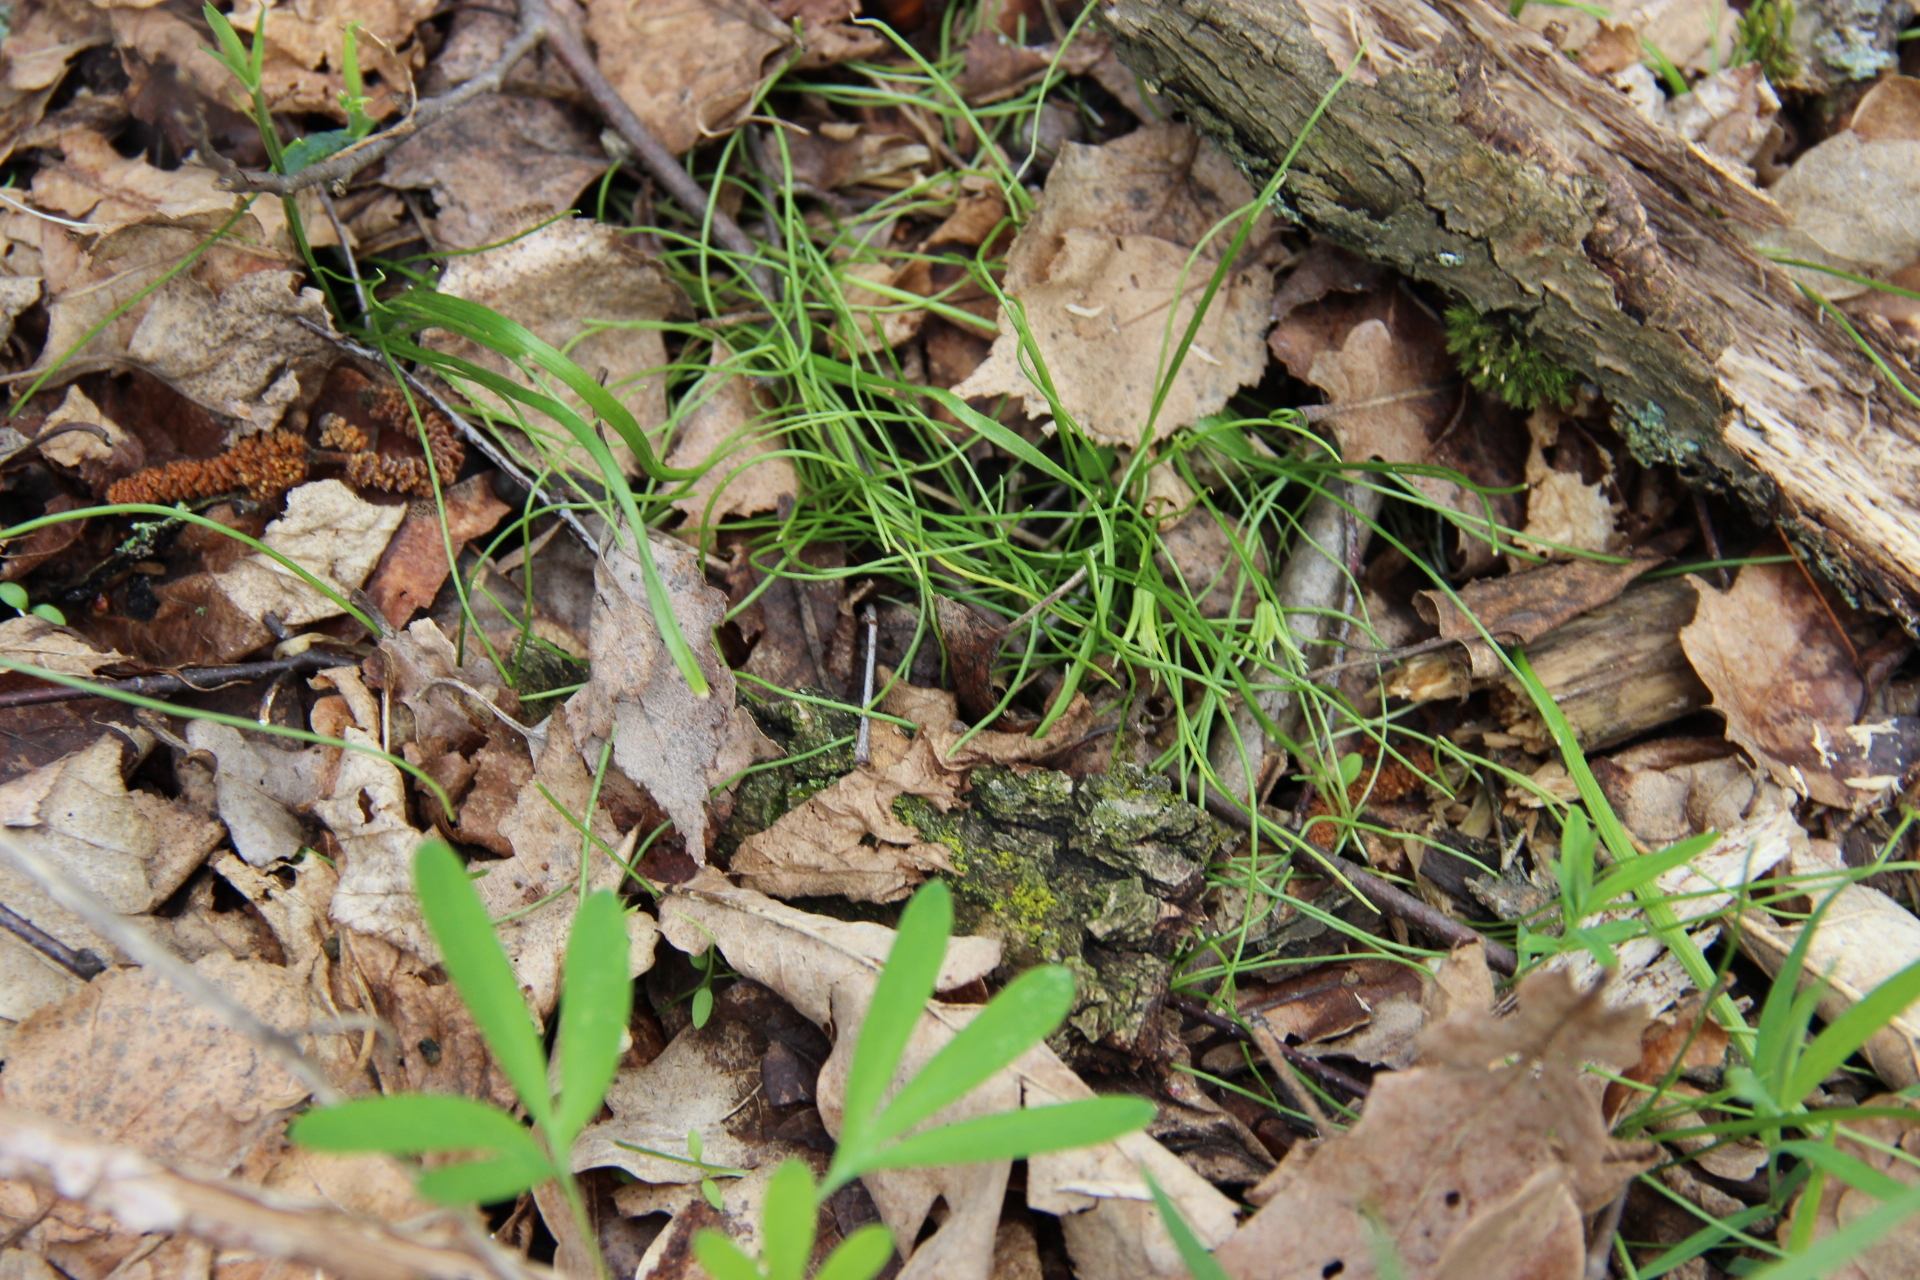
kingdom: Plantae
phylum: Tracheophyta
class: Liliopsida
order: Liliales
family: Liliaceae
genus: Gagea
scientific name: Gagea minima
